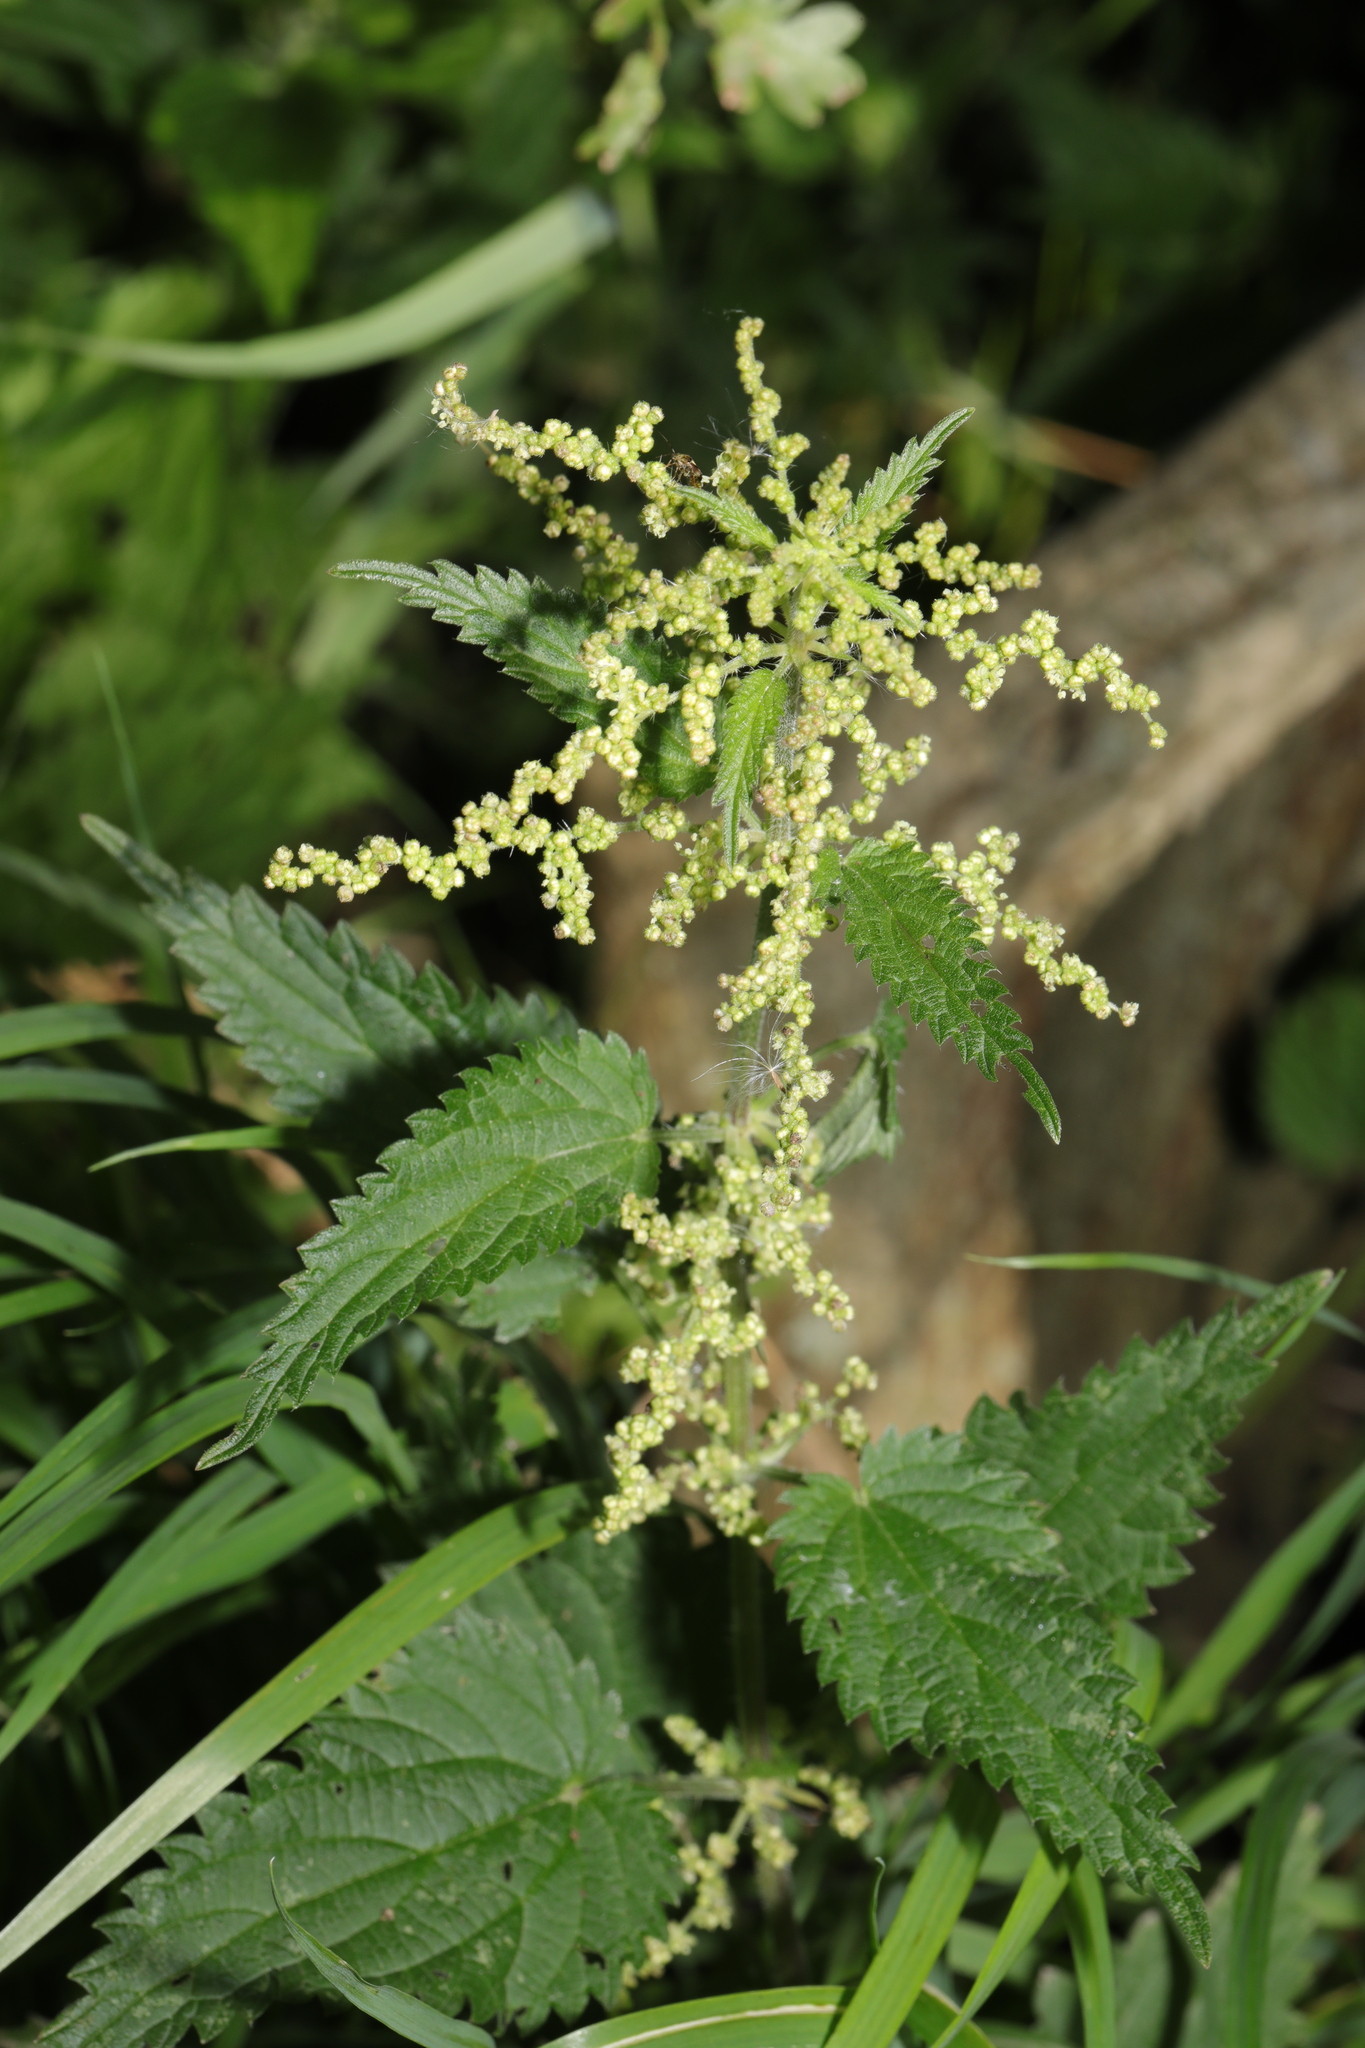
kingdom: Plantae
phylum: Tracheophyta
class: Magnoliopsida
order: Rosales
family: Urticaceae
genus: Urtica
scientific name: Urtica dioica
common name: Common nettle
